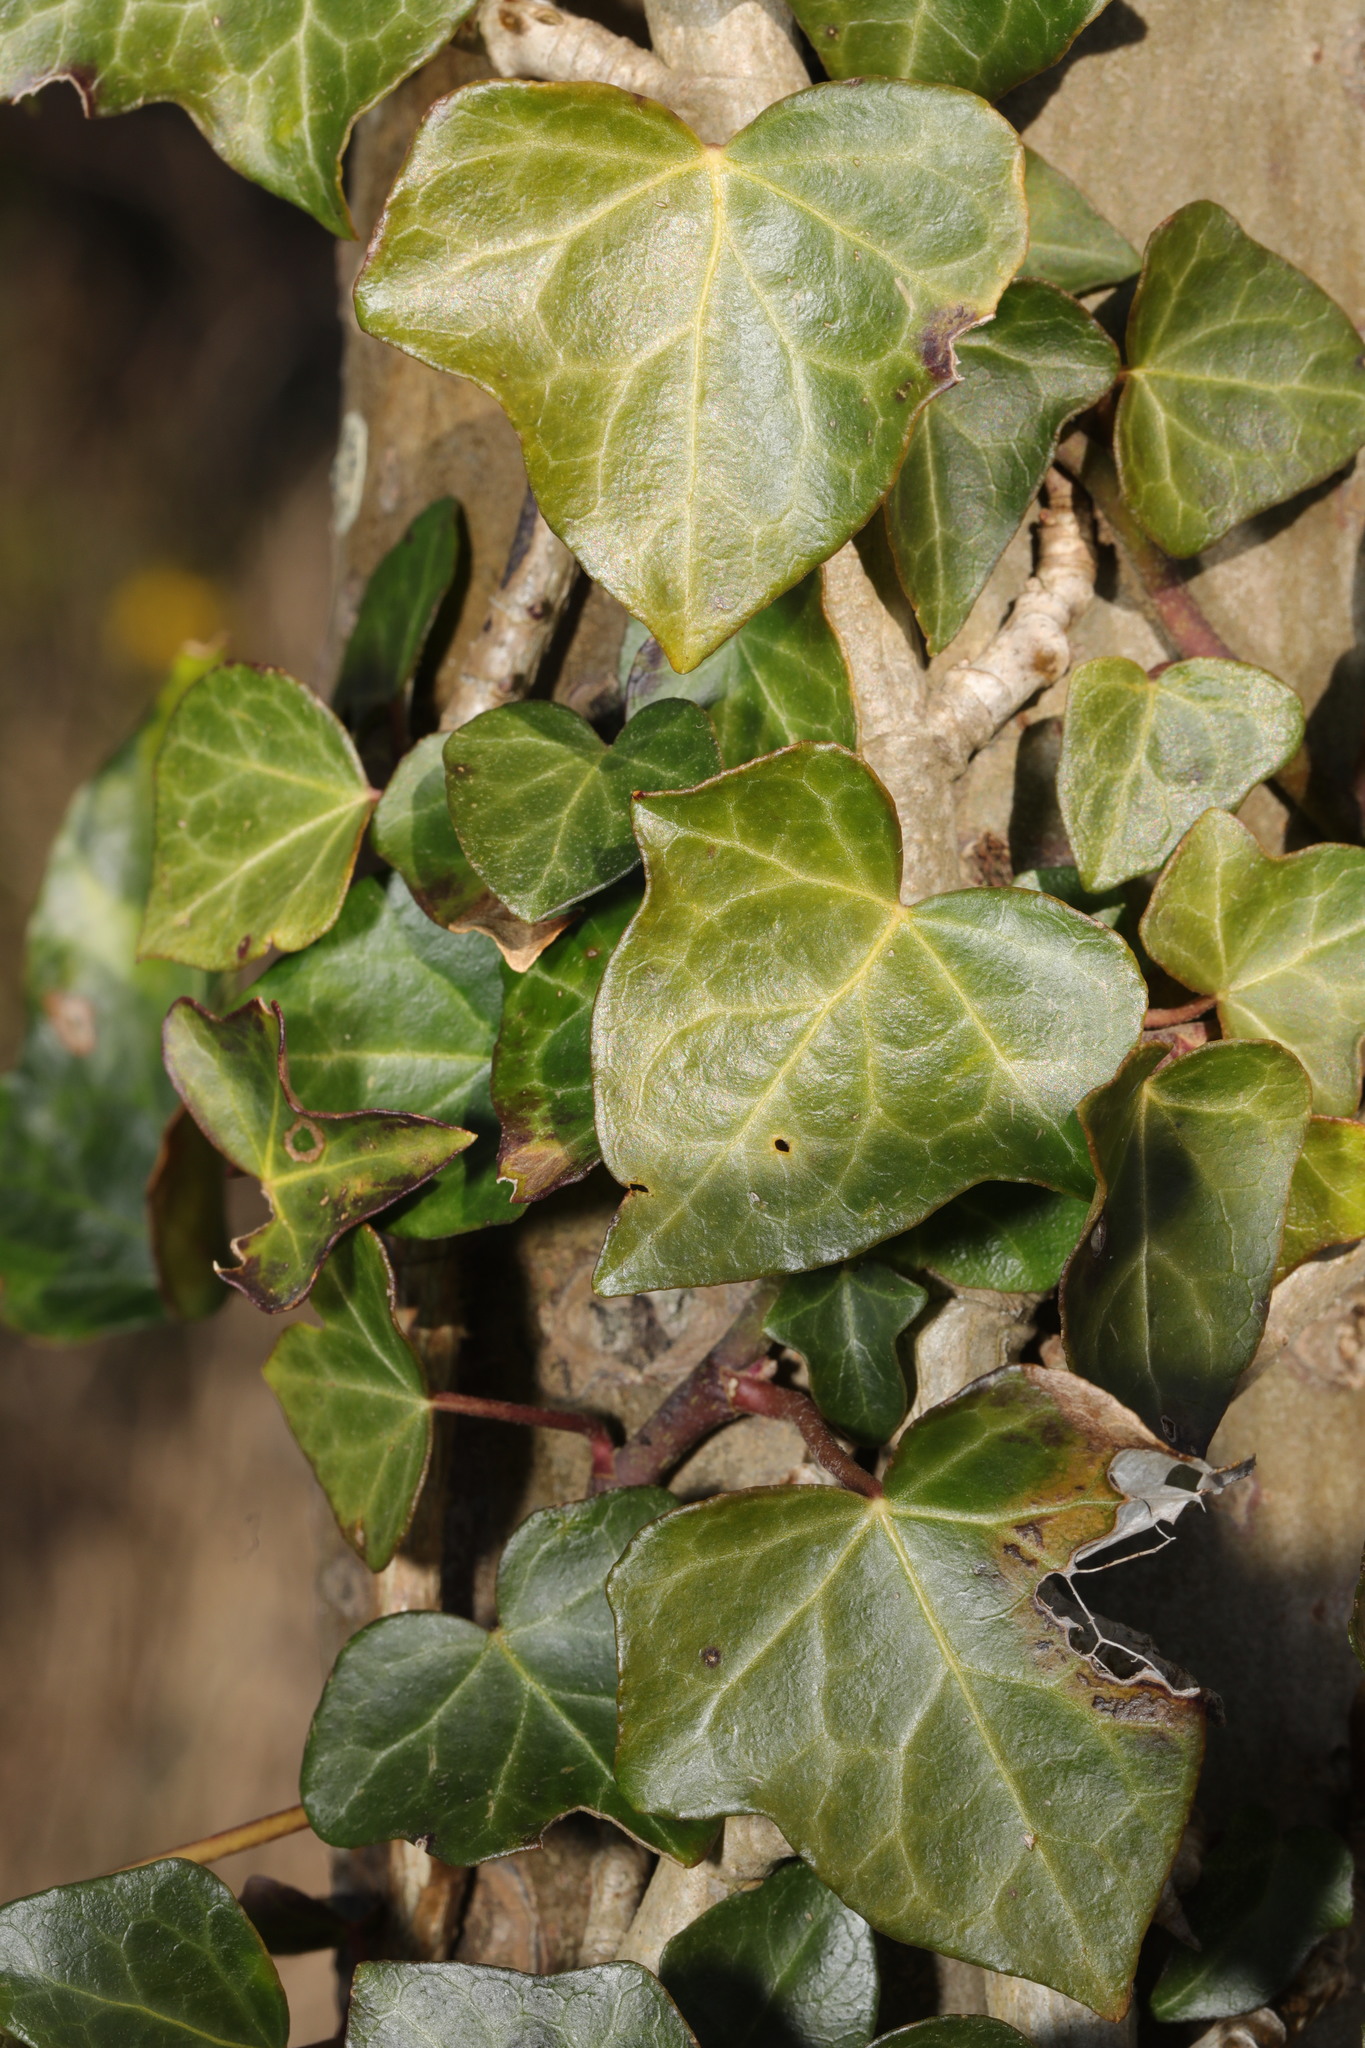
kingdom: Plantae
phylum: Tracheophyta
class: Magnoliopsida
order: Apiales
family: Araliaceae
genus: Hedera
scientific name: Hedera helix
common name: Ivy
